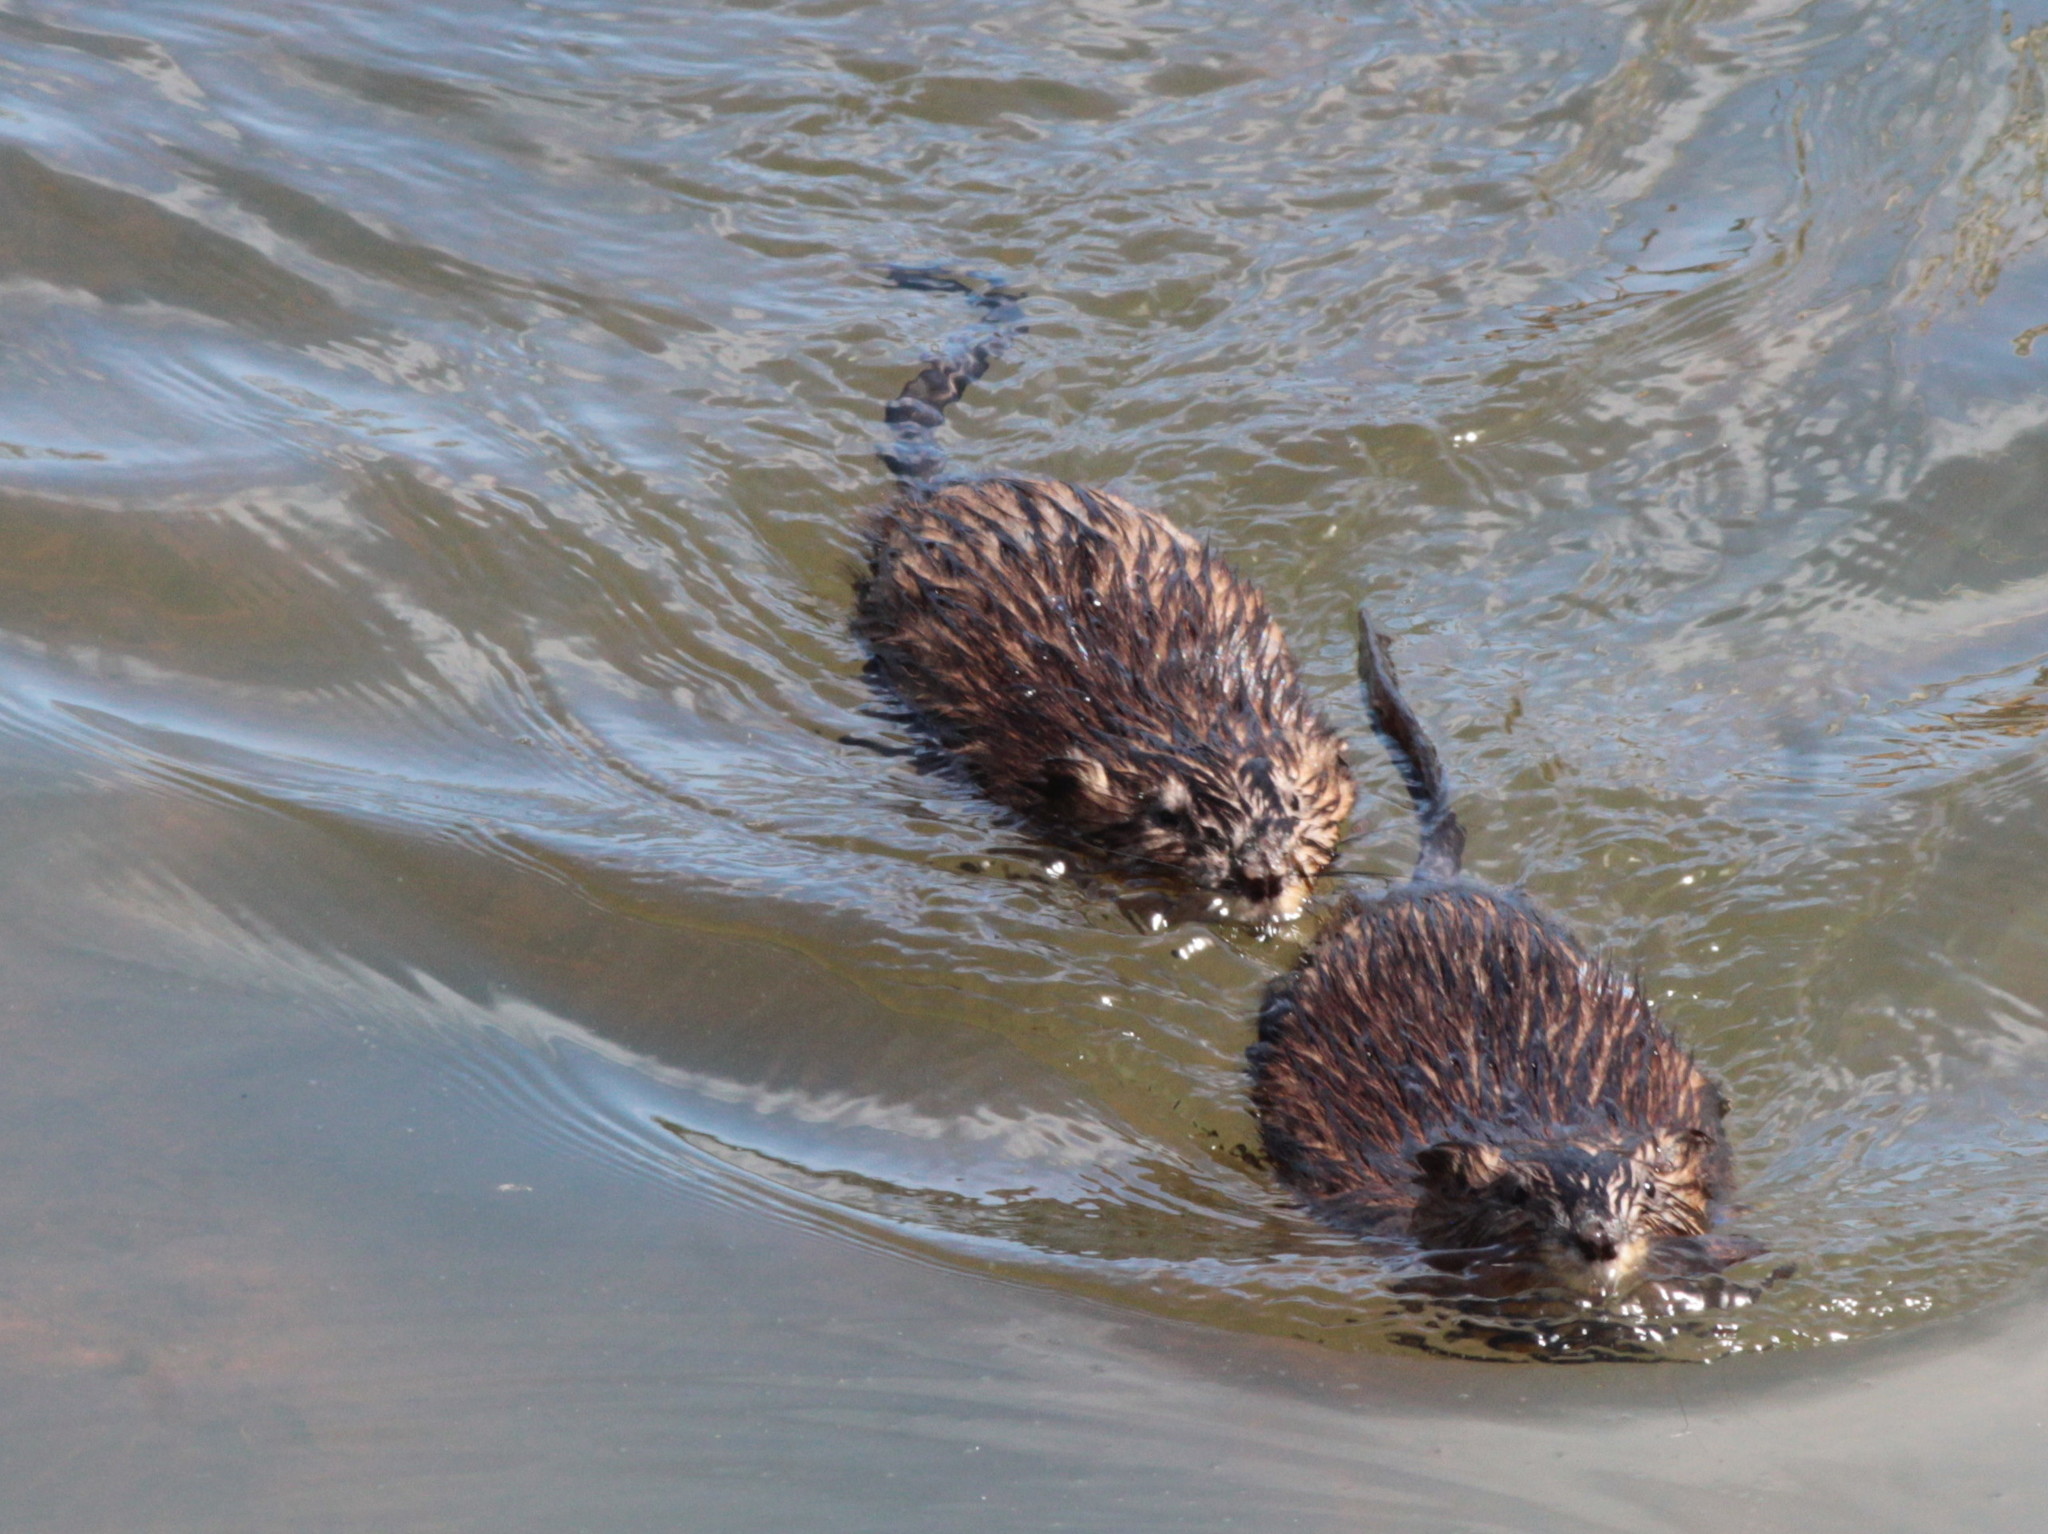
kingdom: Animalia
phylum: Chordata
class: Mammalia
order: Rodentia
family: Cricetidae
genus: Ondatra
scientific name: Ondatra zibethicus
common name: Muskrat
